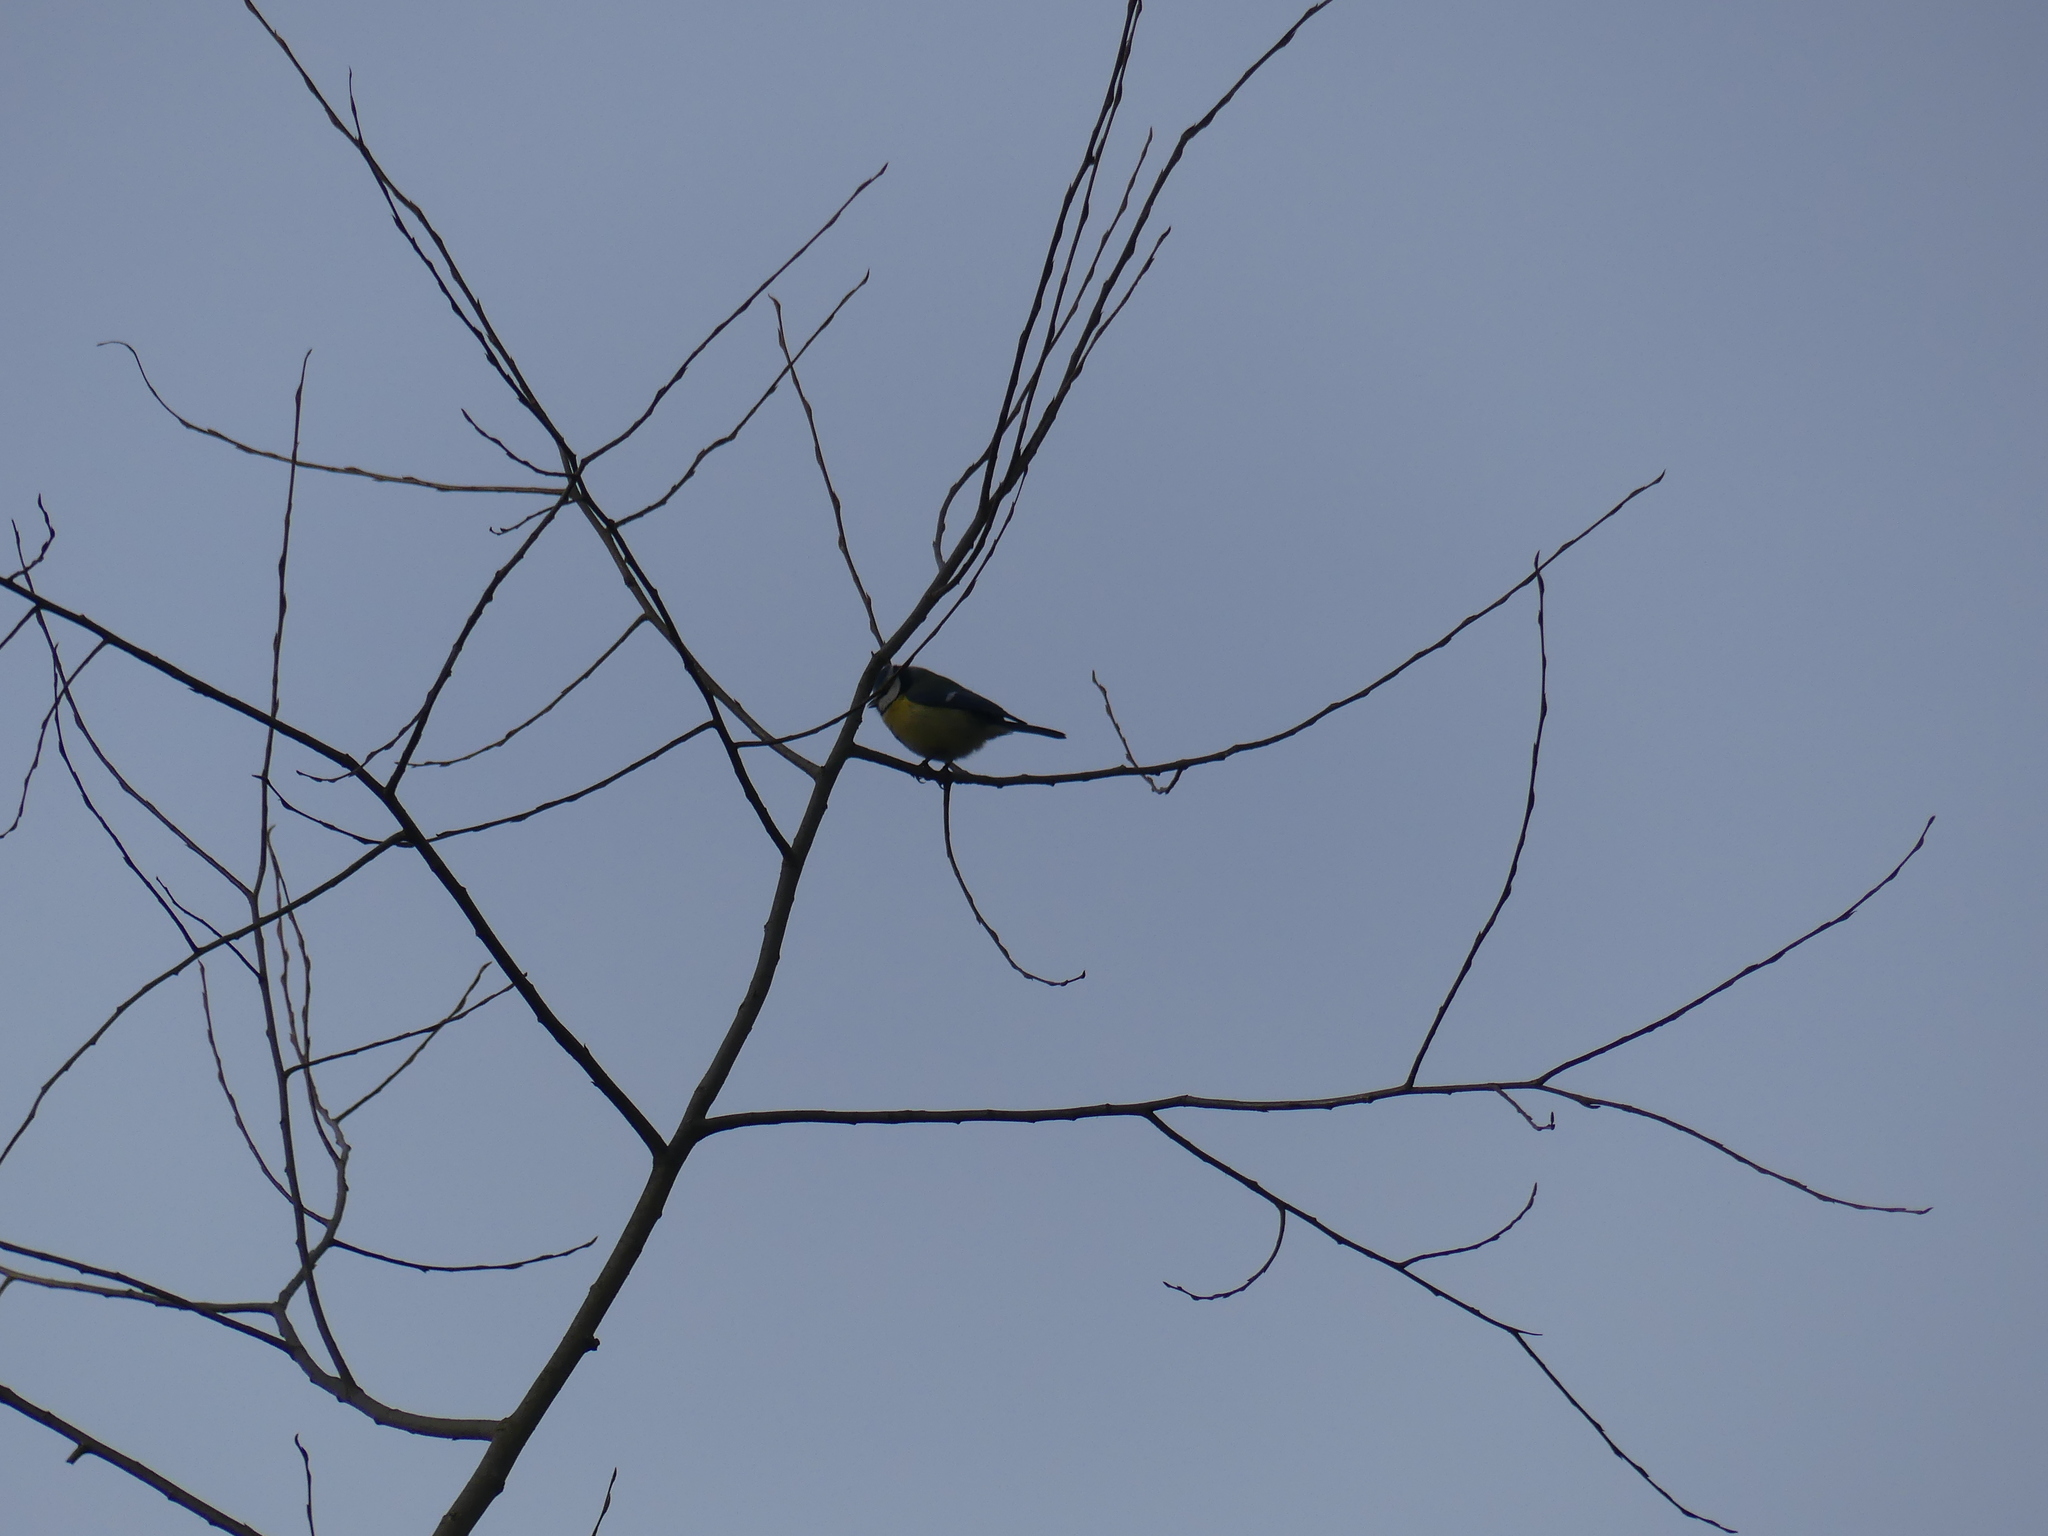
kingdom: Animalia
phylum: Chordata
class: Aves
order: Passeriformes
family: Paridae
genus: Cyanistes
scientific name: Cyanistes caeruleus
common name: Eurasian blue tit
